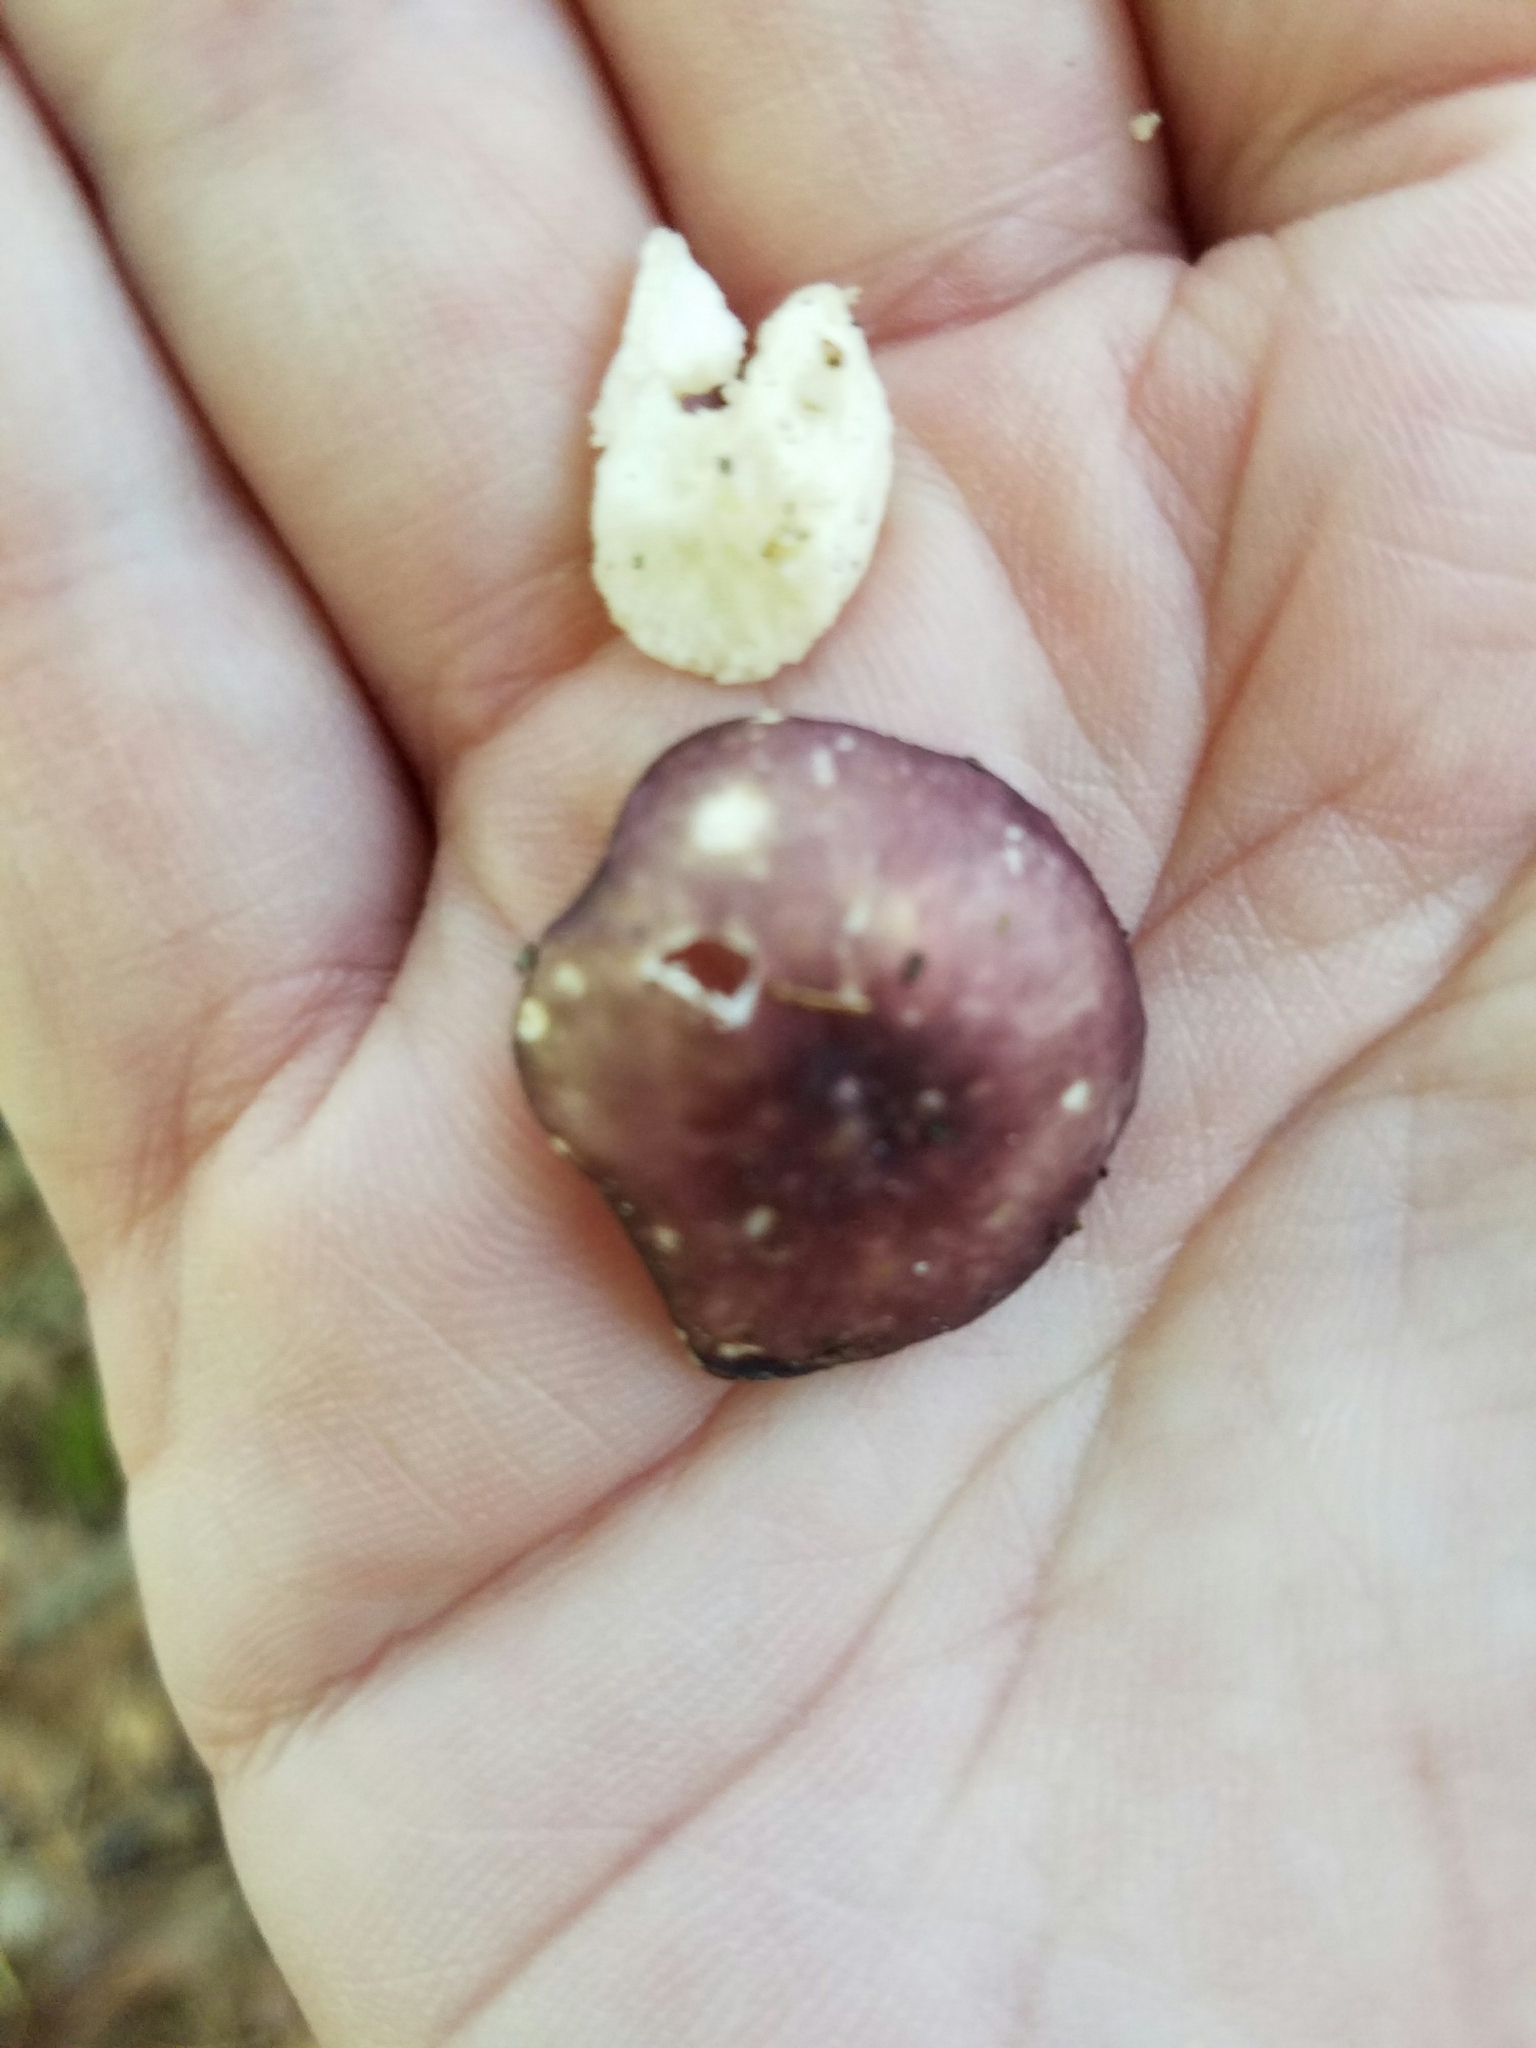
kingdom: Animalia
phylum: Chordata
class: Mammalia
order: Rodentia
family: Sciuridae
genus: Tamias
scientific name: Tamias striatus
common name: Eastern chipmunk
